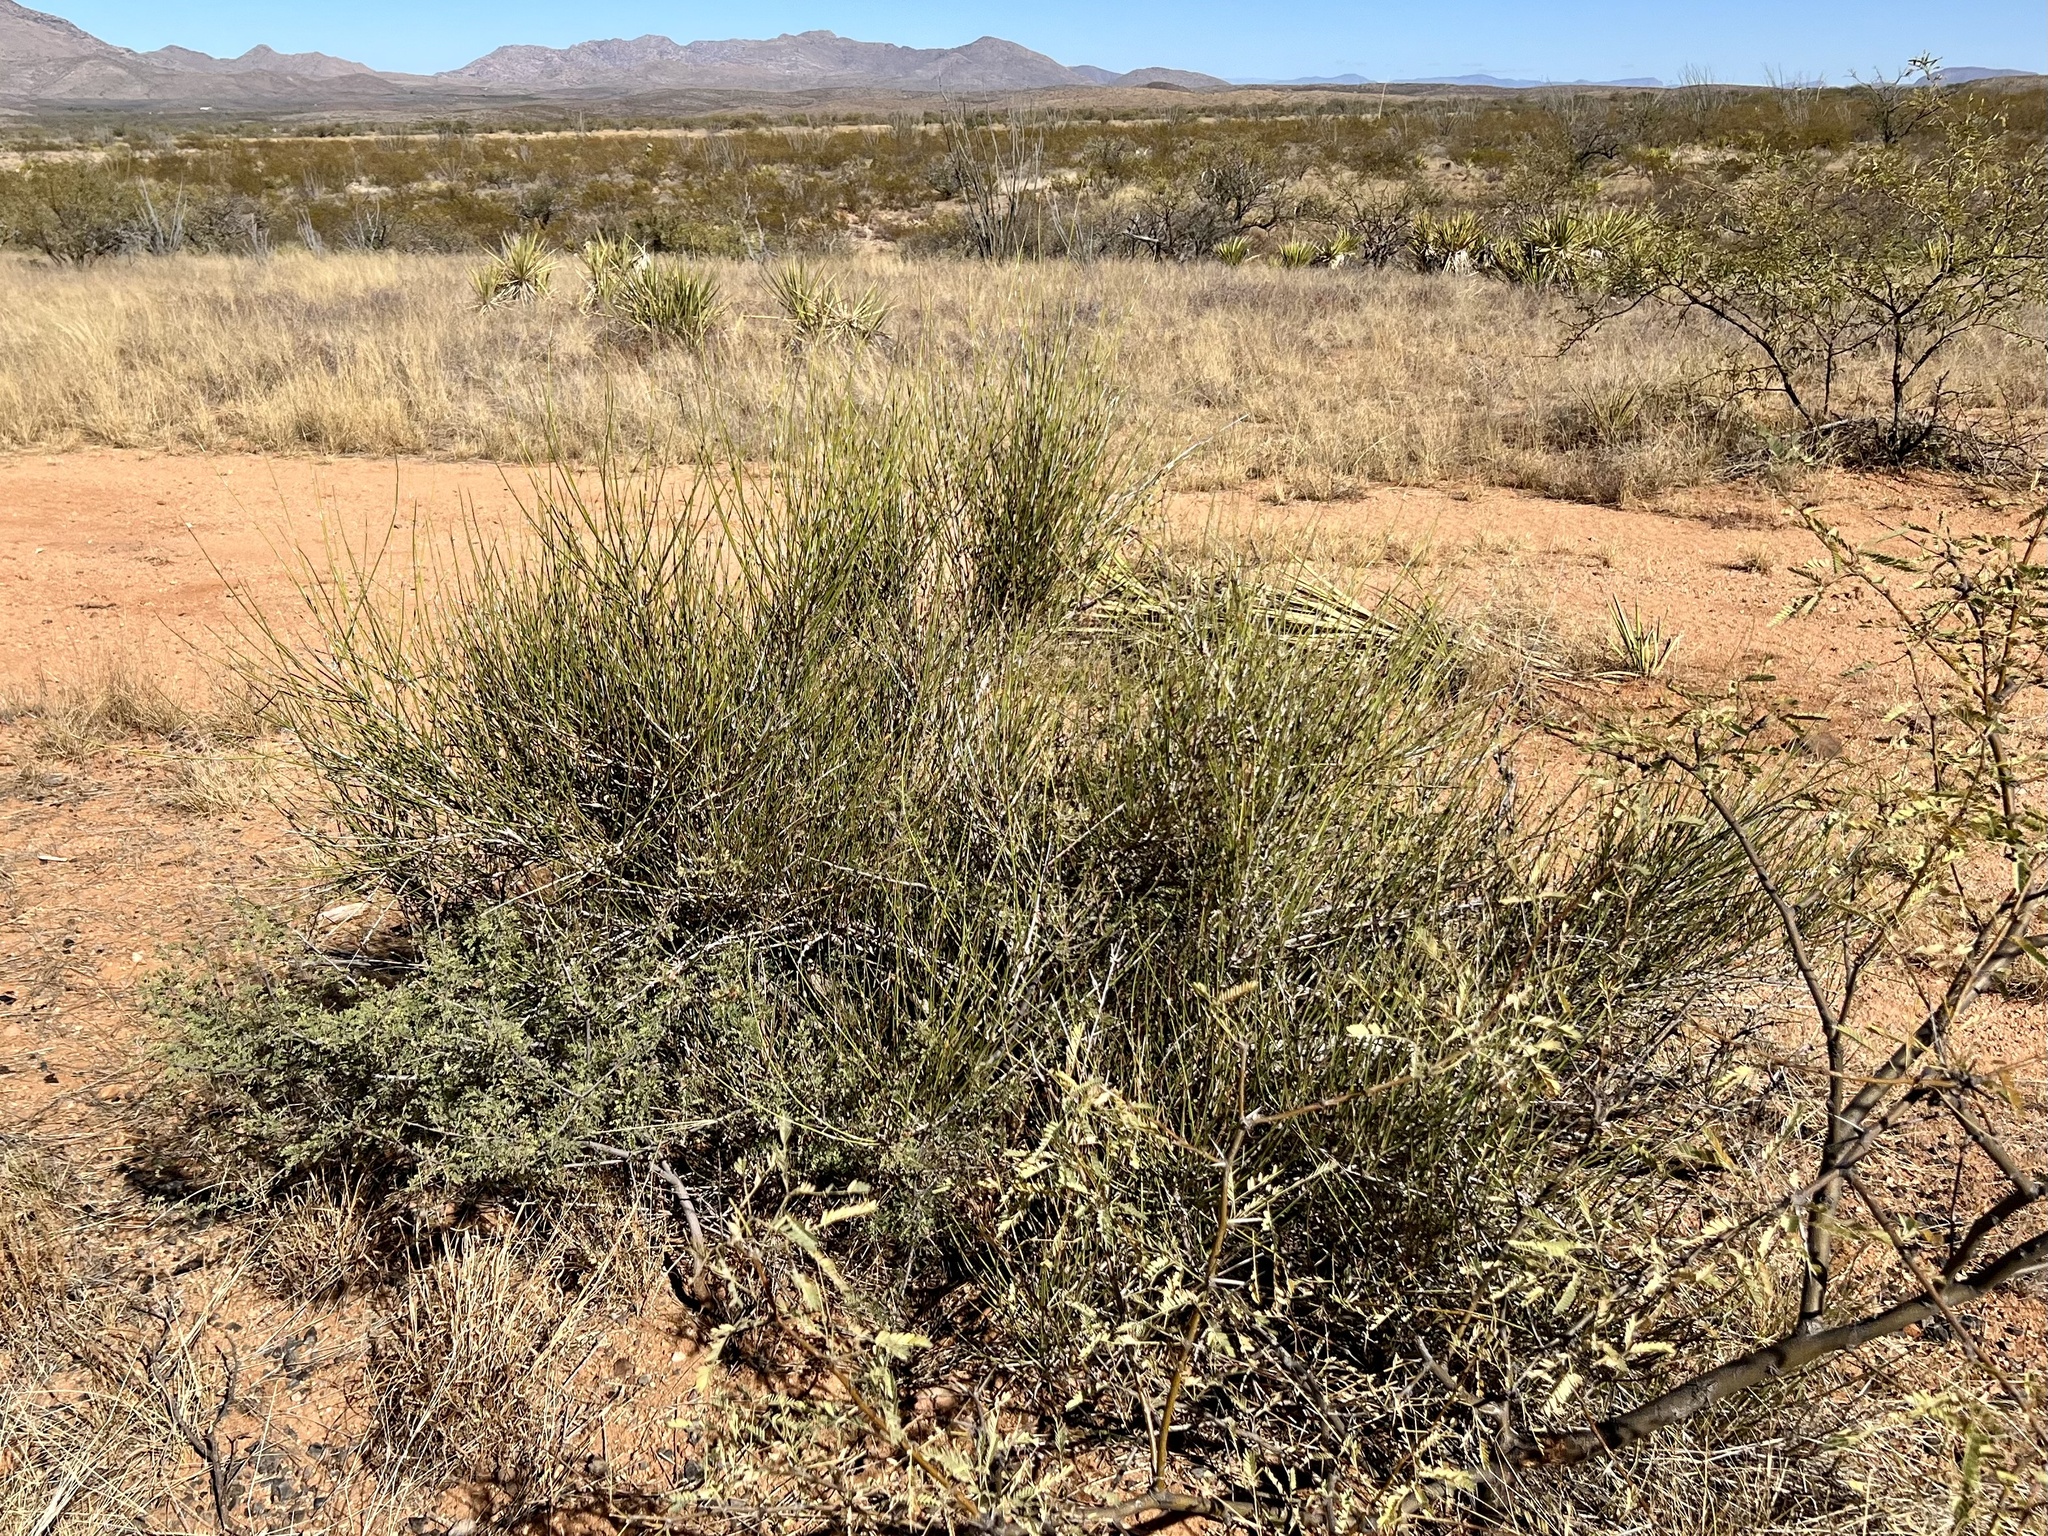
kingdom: Plantae
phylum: Tracheophyta
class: Gnetopsida
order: Ephedrales
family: Ephedraceae
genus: Ephedra
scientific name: Ephedra trifurca
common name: Mexican-tea
